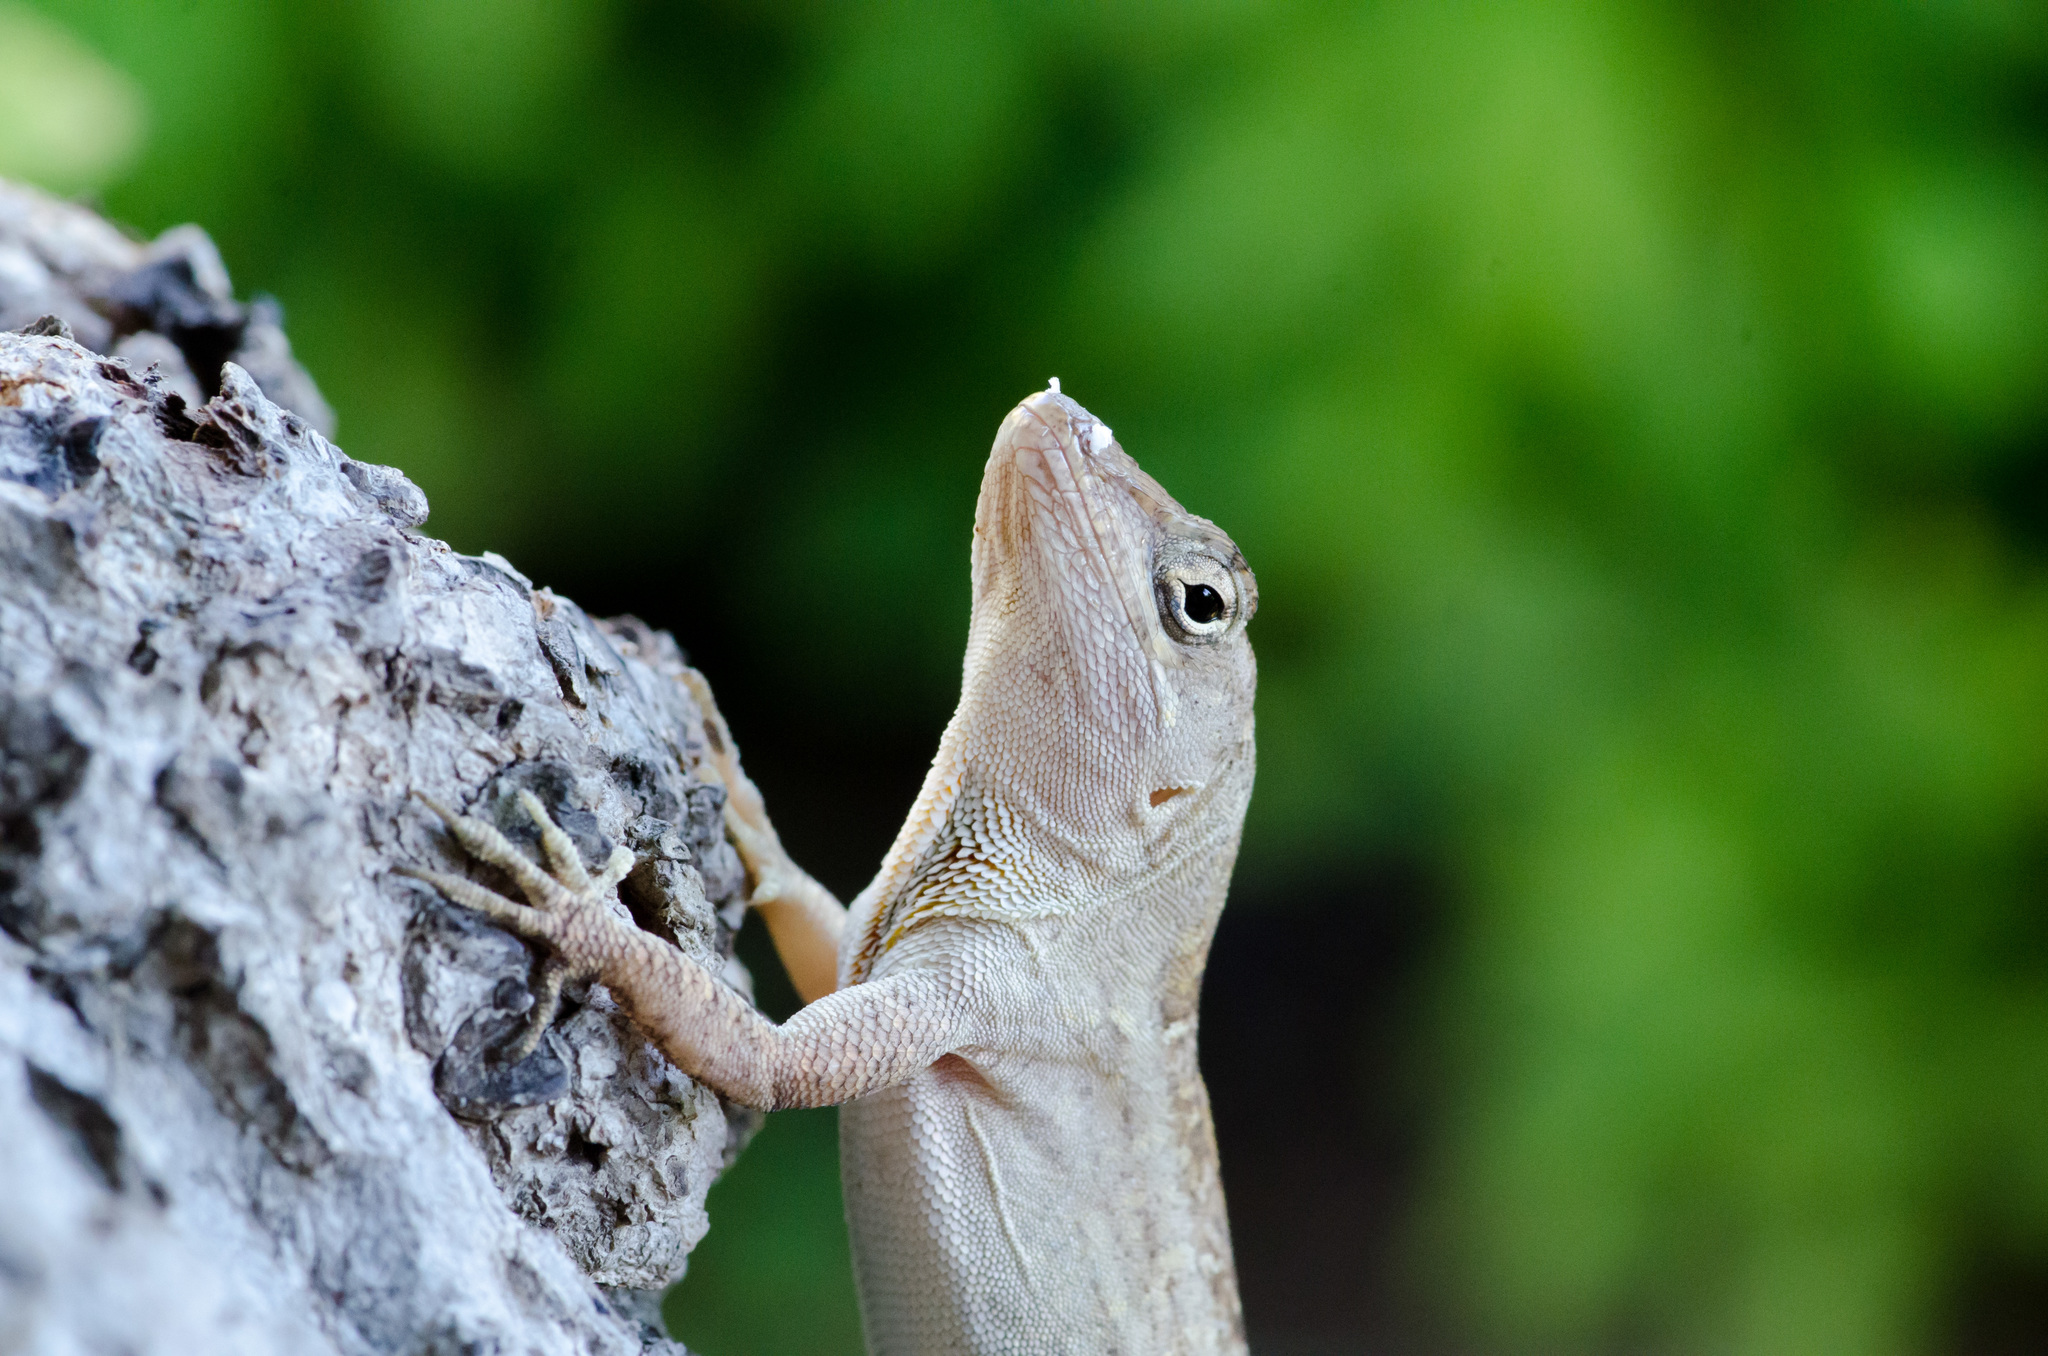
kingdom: Animalia
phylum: Chordata
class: Squamata
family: Dactyloidae
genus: Anolis
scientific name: Anolis sagrei
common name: Brown anole
